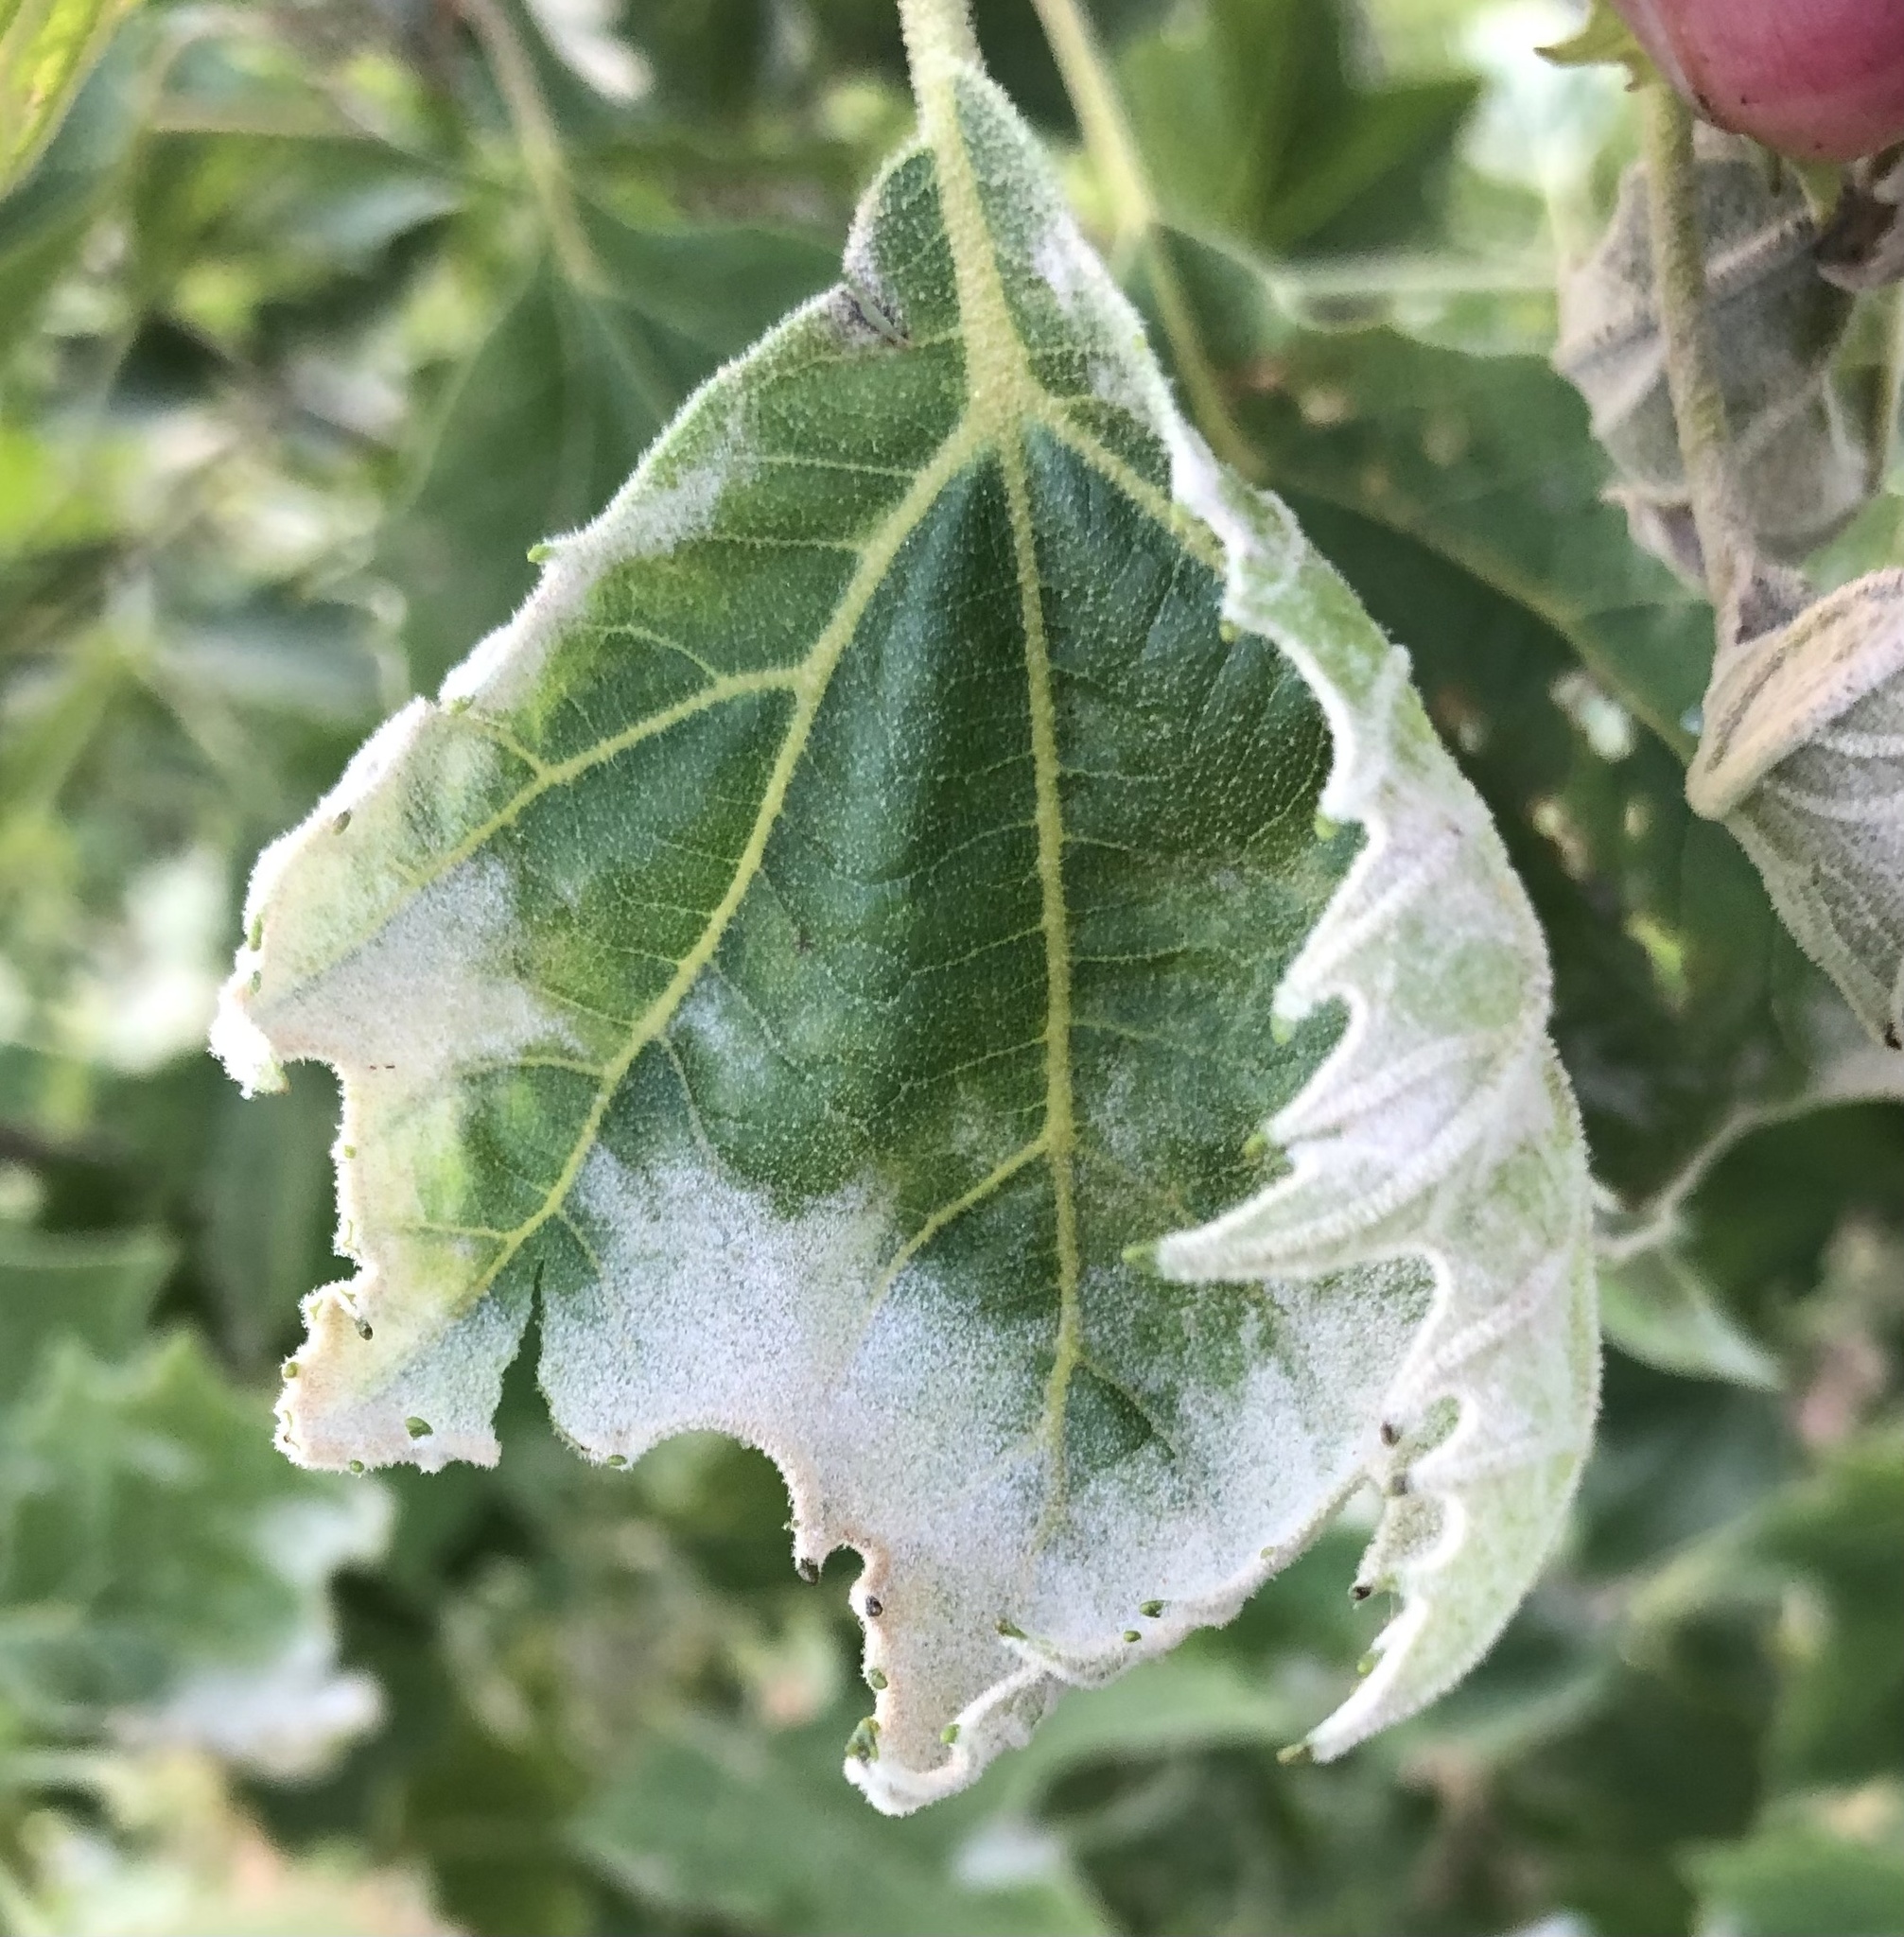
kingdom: Fungi
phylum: Ascomycota
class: Leotiomycetes
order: Helotiales
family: Erysiphaceae
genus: Erysiphe
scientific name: Erysiphe platani
